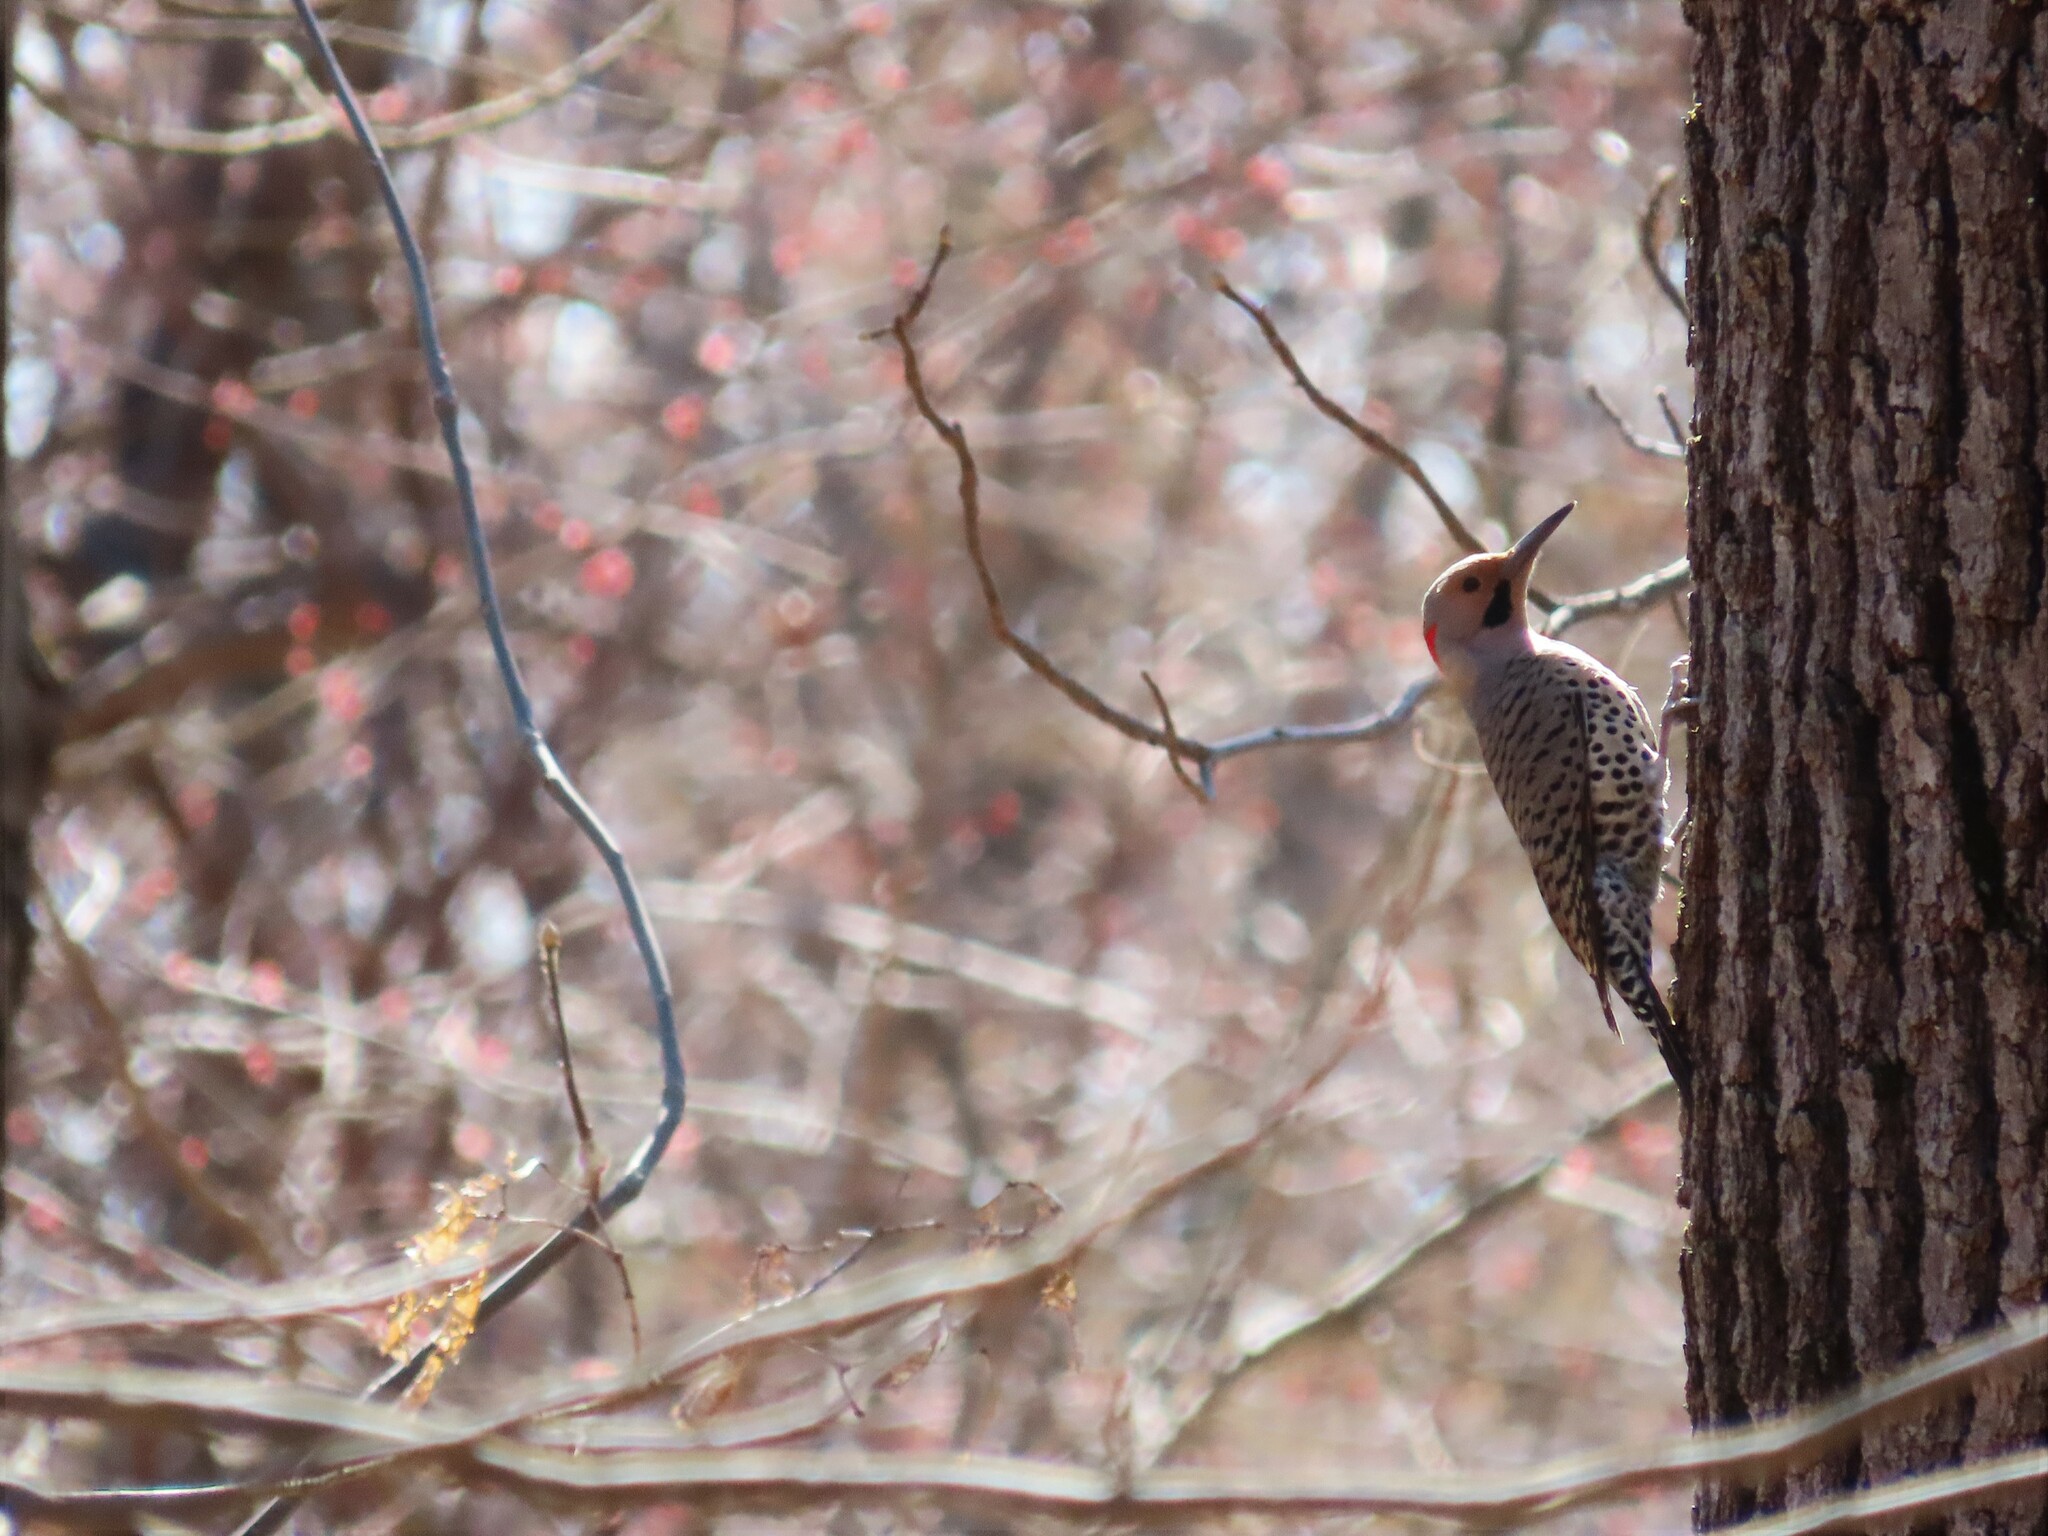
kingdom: Animalia
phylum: Chordata
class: Aves
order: Piciformes
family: Picidae
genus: Colaptes
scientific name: Colaptes auratus
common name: Northern flicker
